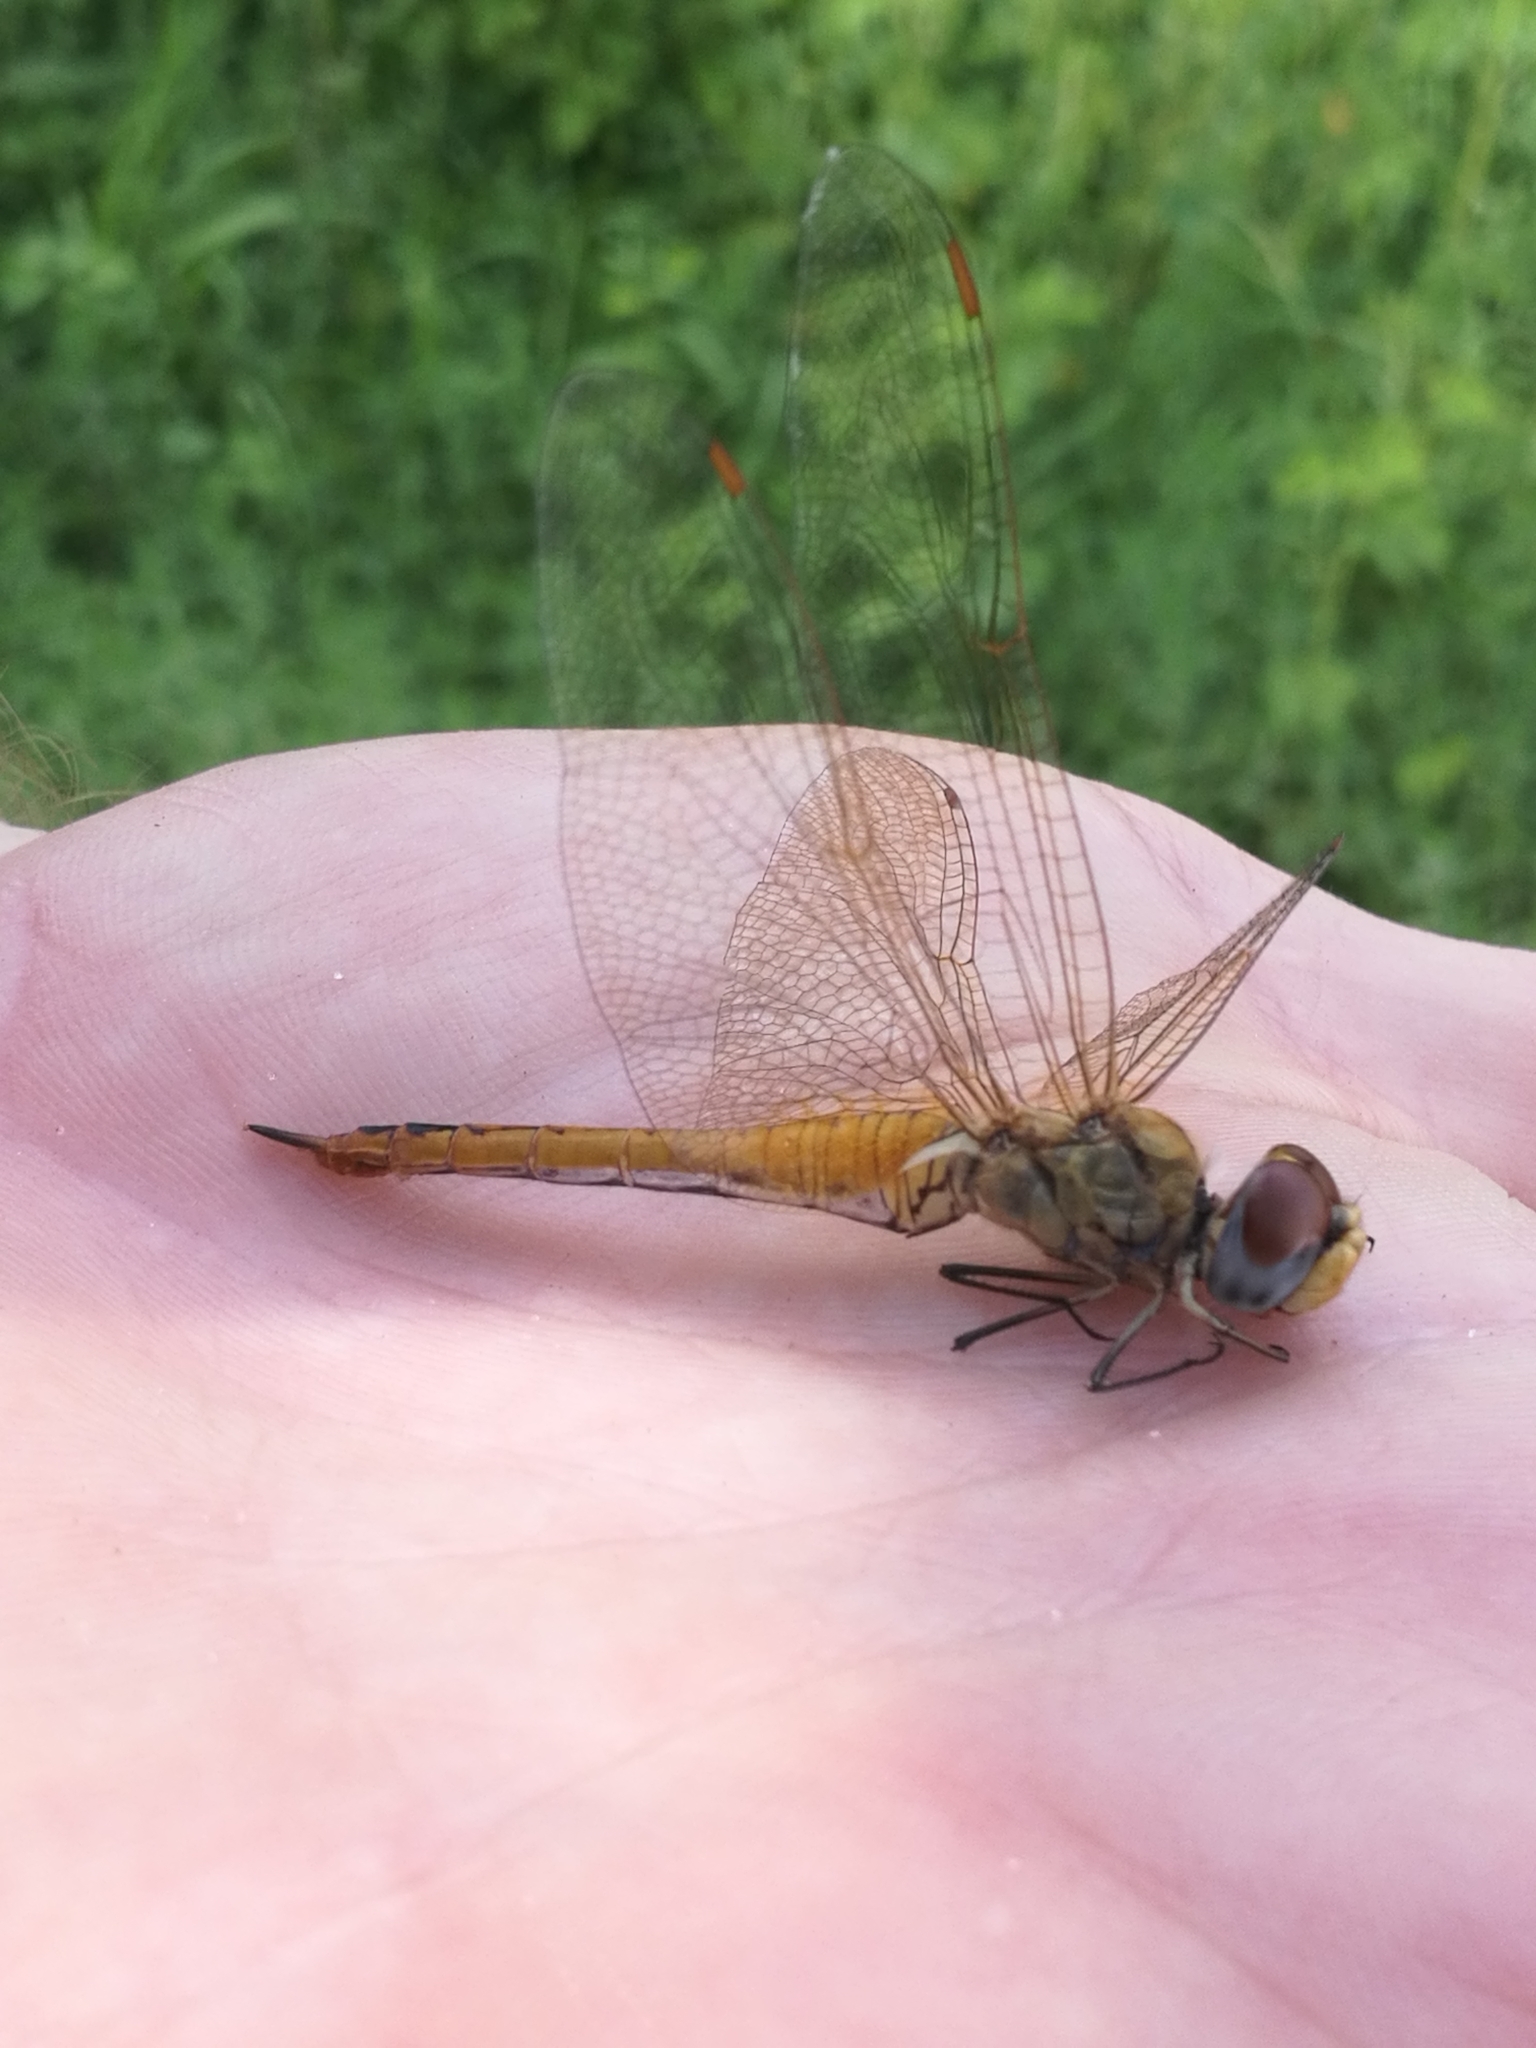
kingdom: Animalia
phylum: Arthropoda
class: Insecta
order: Odonata
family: Libellulidae
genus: Pantala
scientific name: Pantala flavescens
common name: Wandering glider
